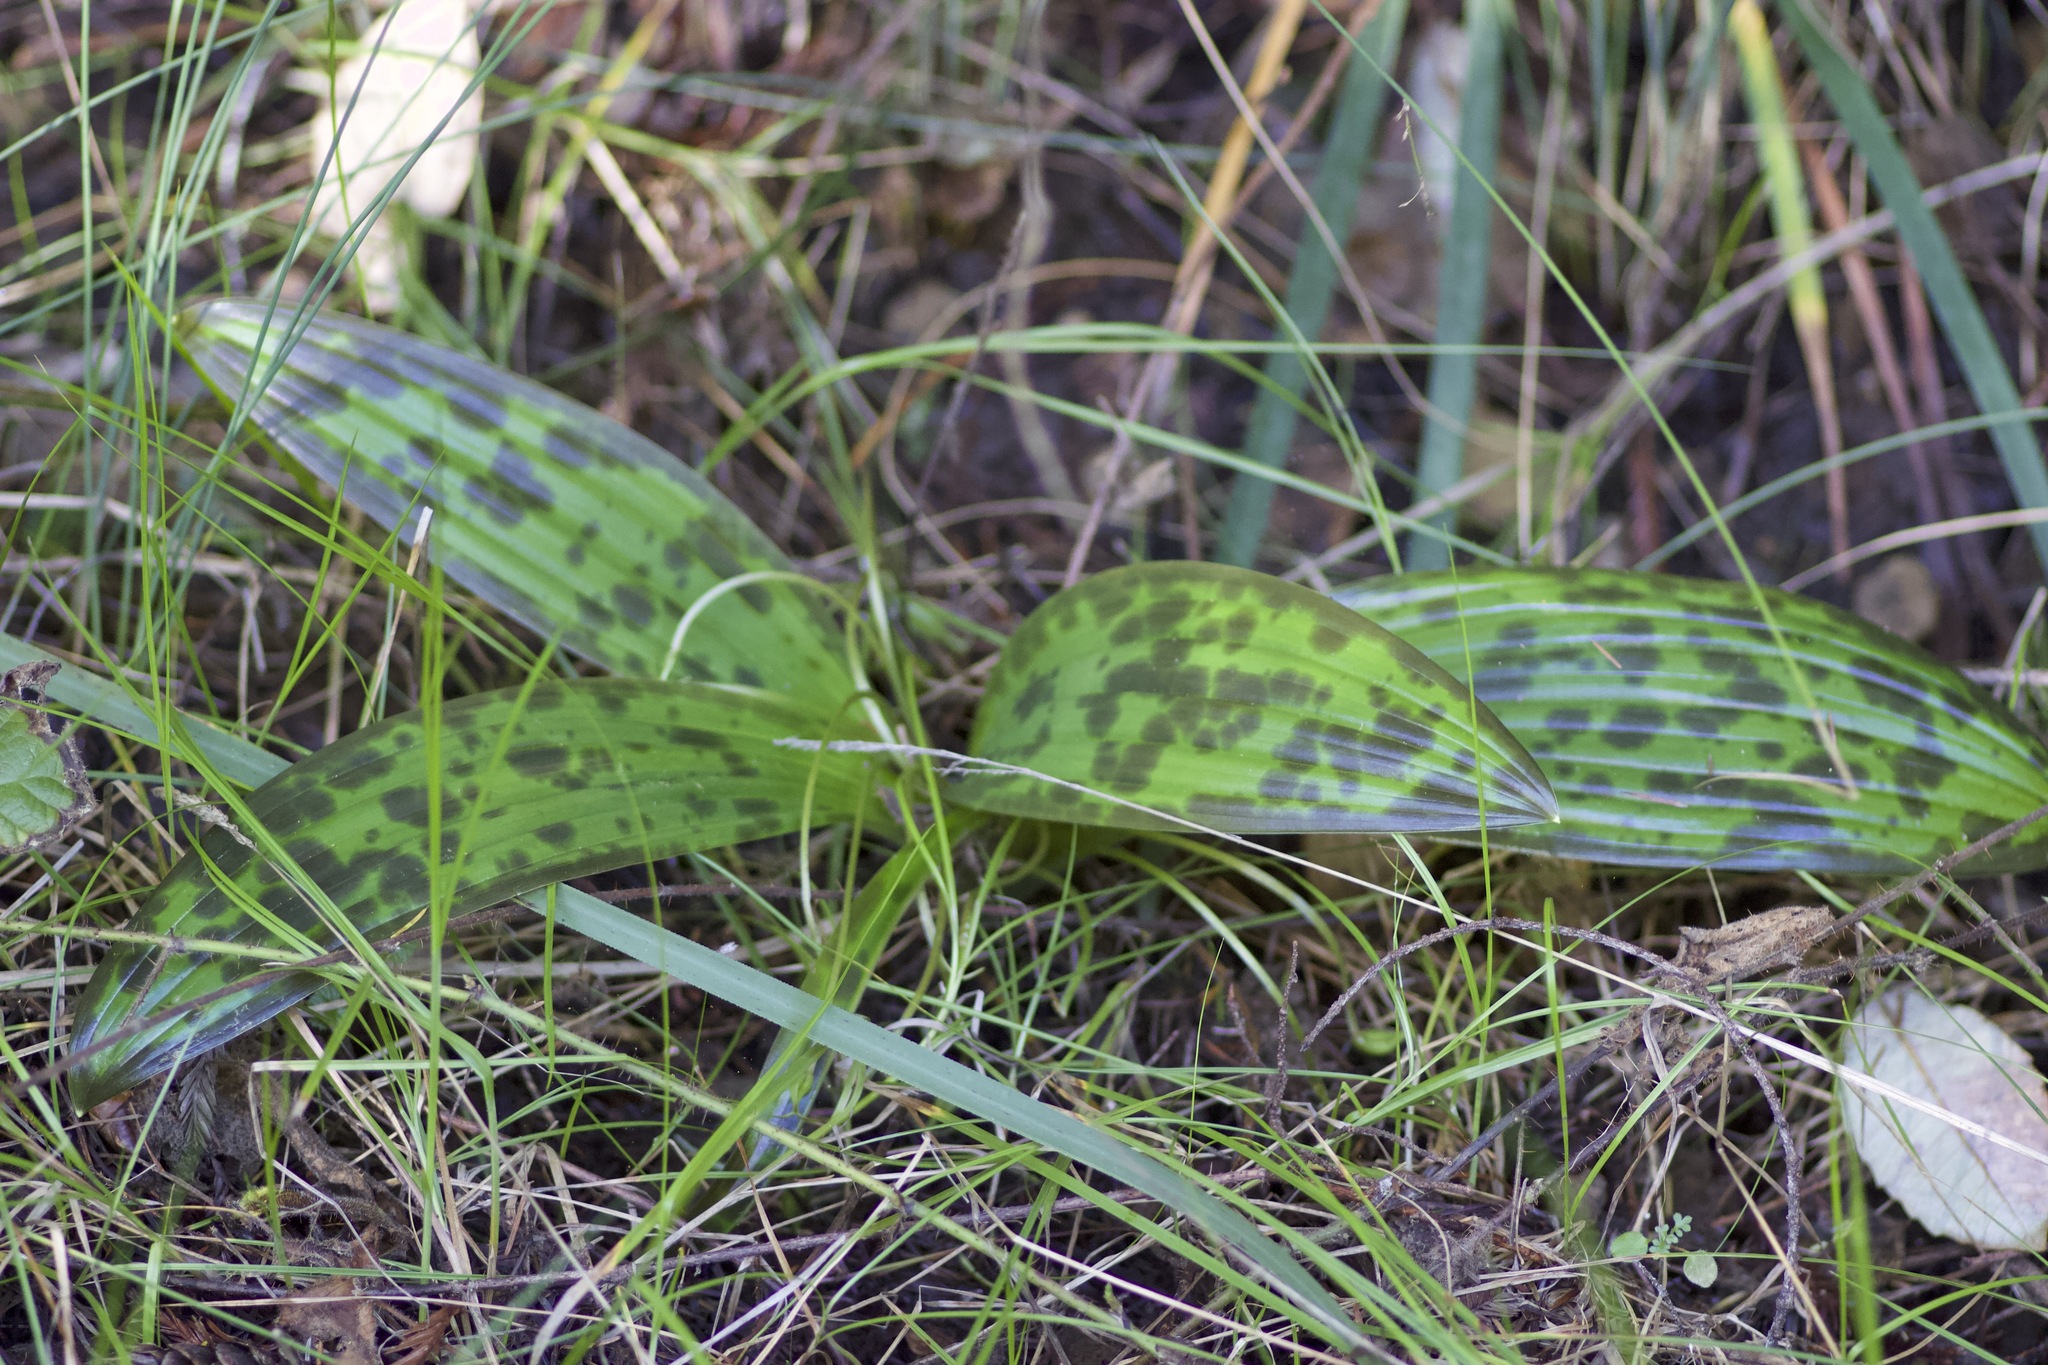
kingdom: Plantae
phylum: Tracheophyta
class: Liliopsida
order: Liliales
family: Liliaceae
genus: Scoliopus
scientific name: Scoliopus bigelovii
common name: Foetid adder's-tongue
